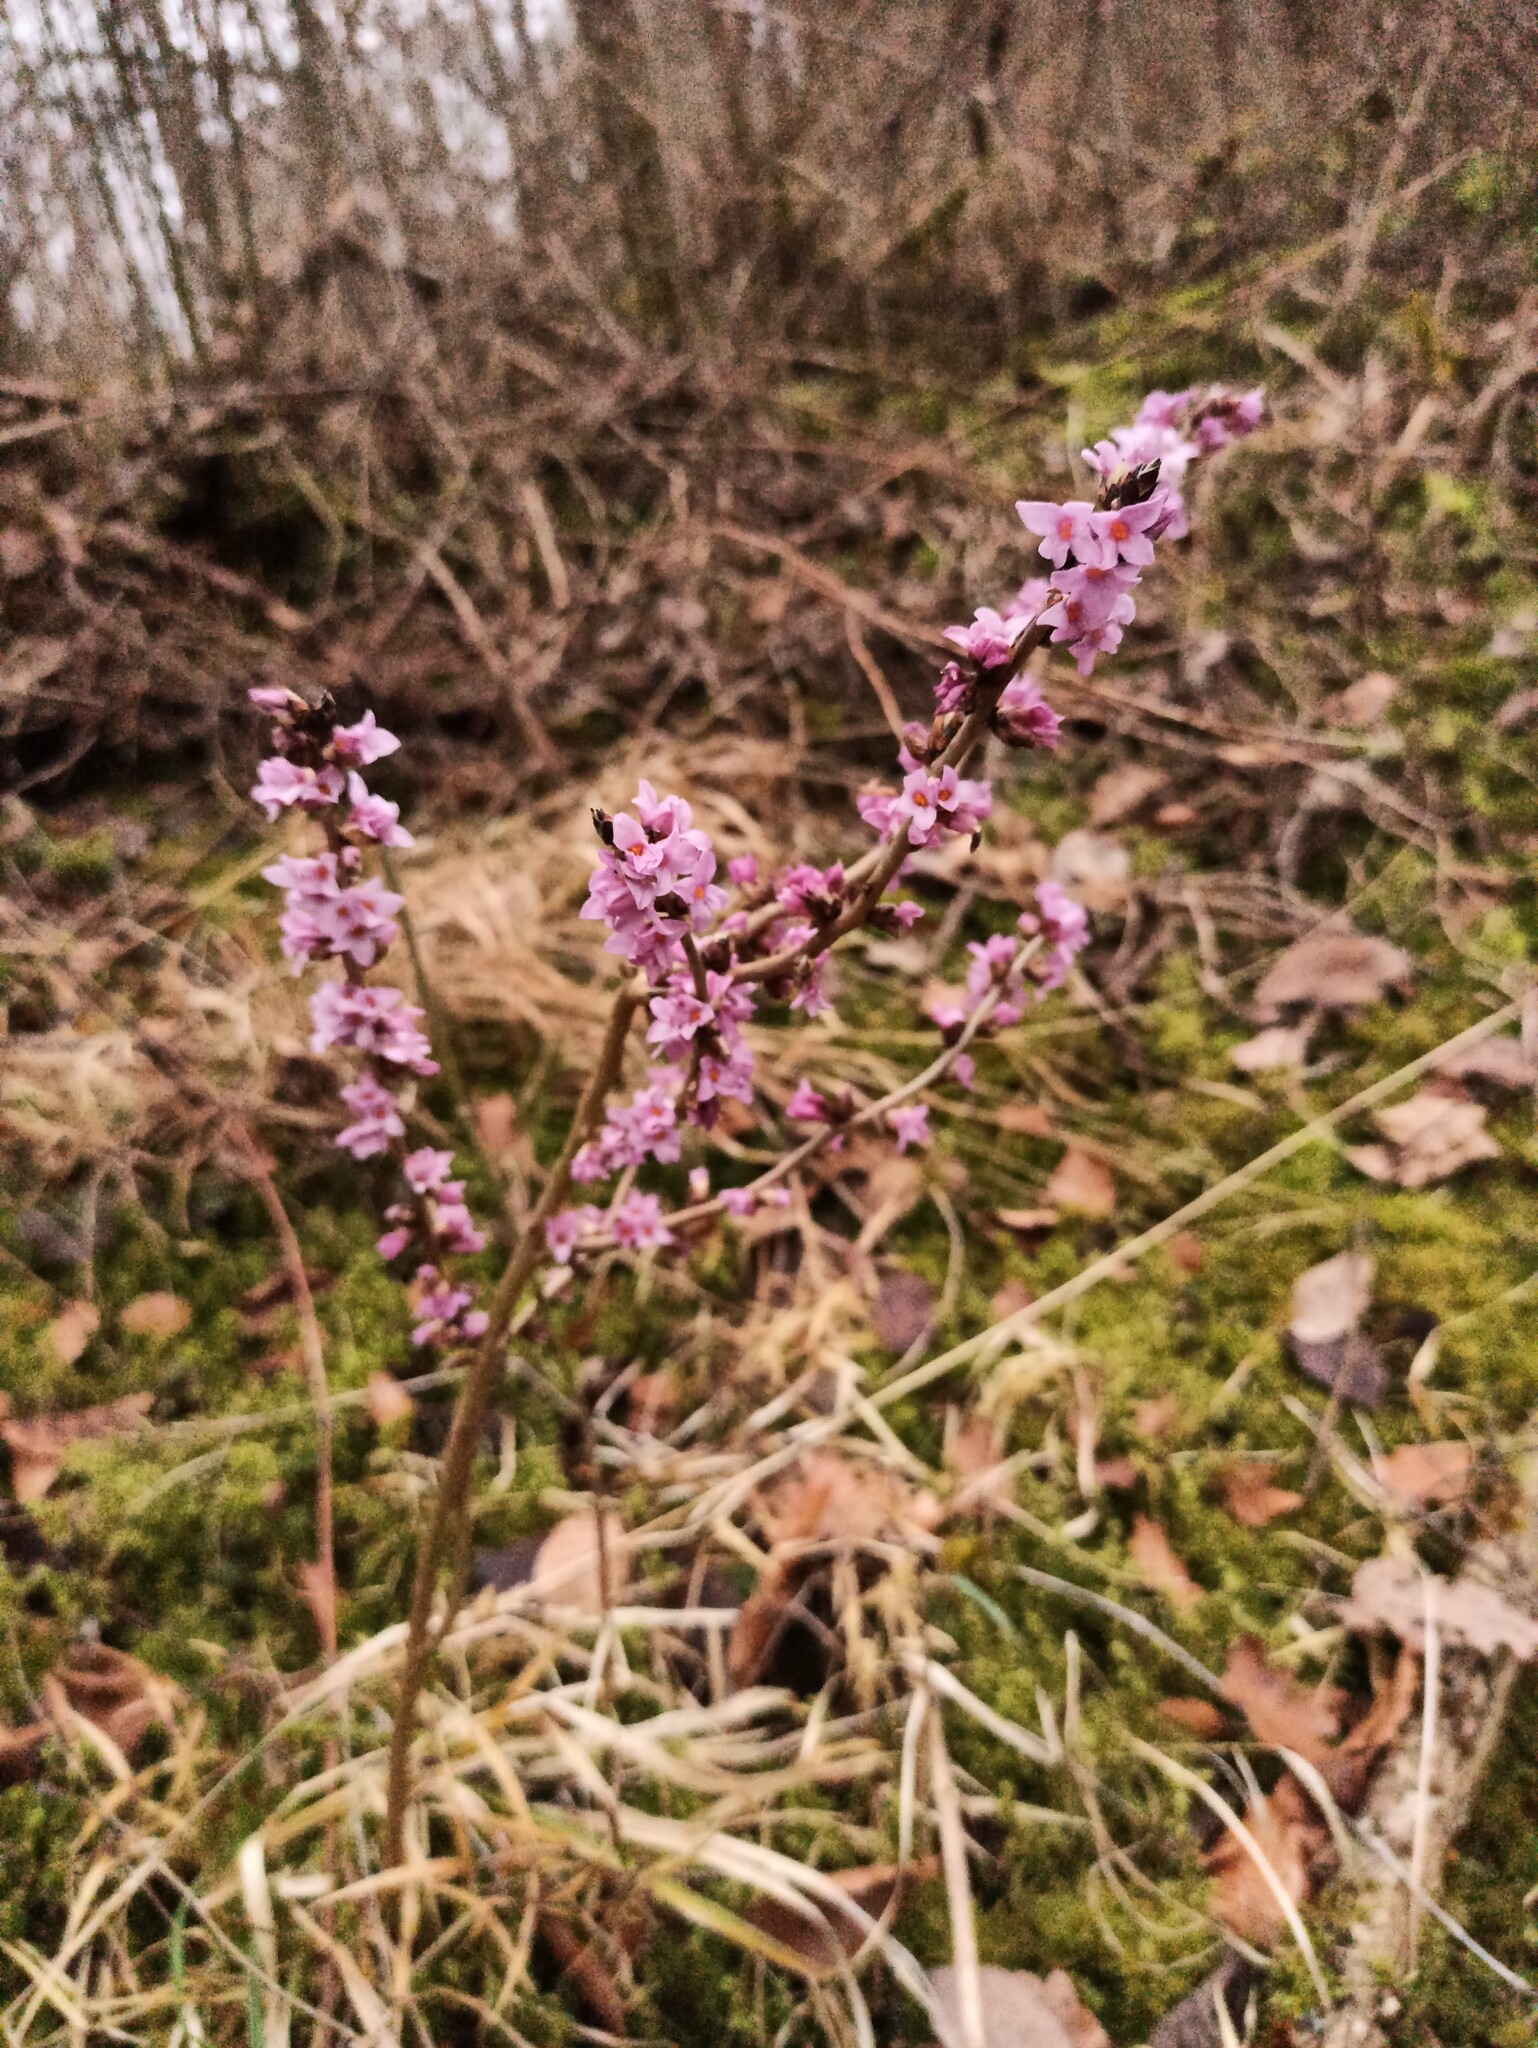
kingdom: Plantae
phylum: Tracheophyta
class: Magnoliopsida
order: Malvales
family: Thymelaeaceae
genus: Daphne
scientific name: Daphne mezereum
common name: Mezereon
